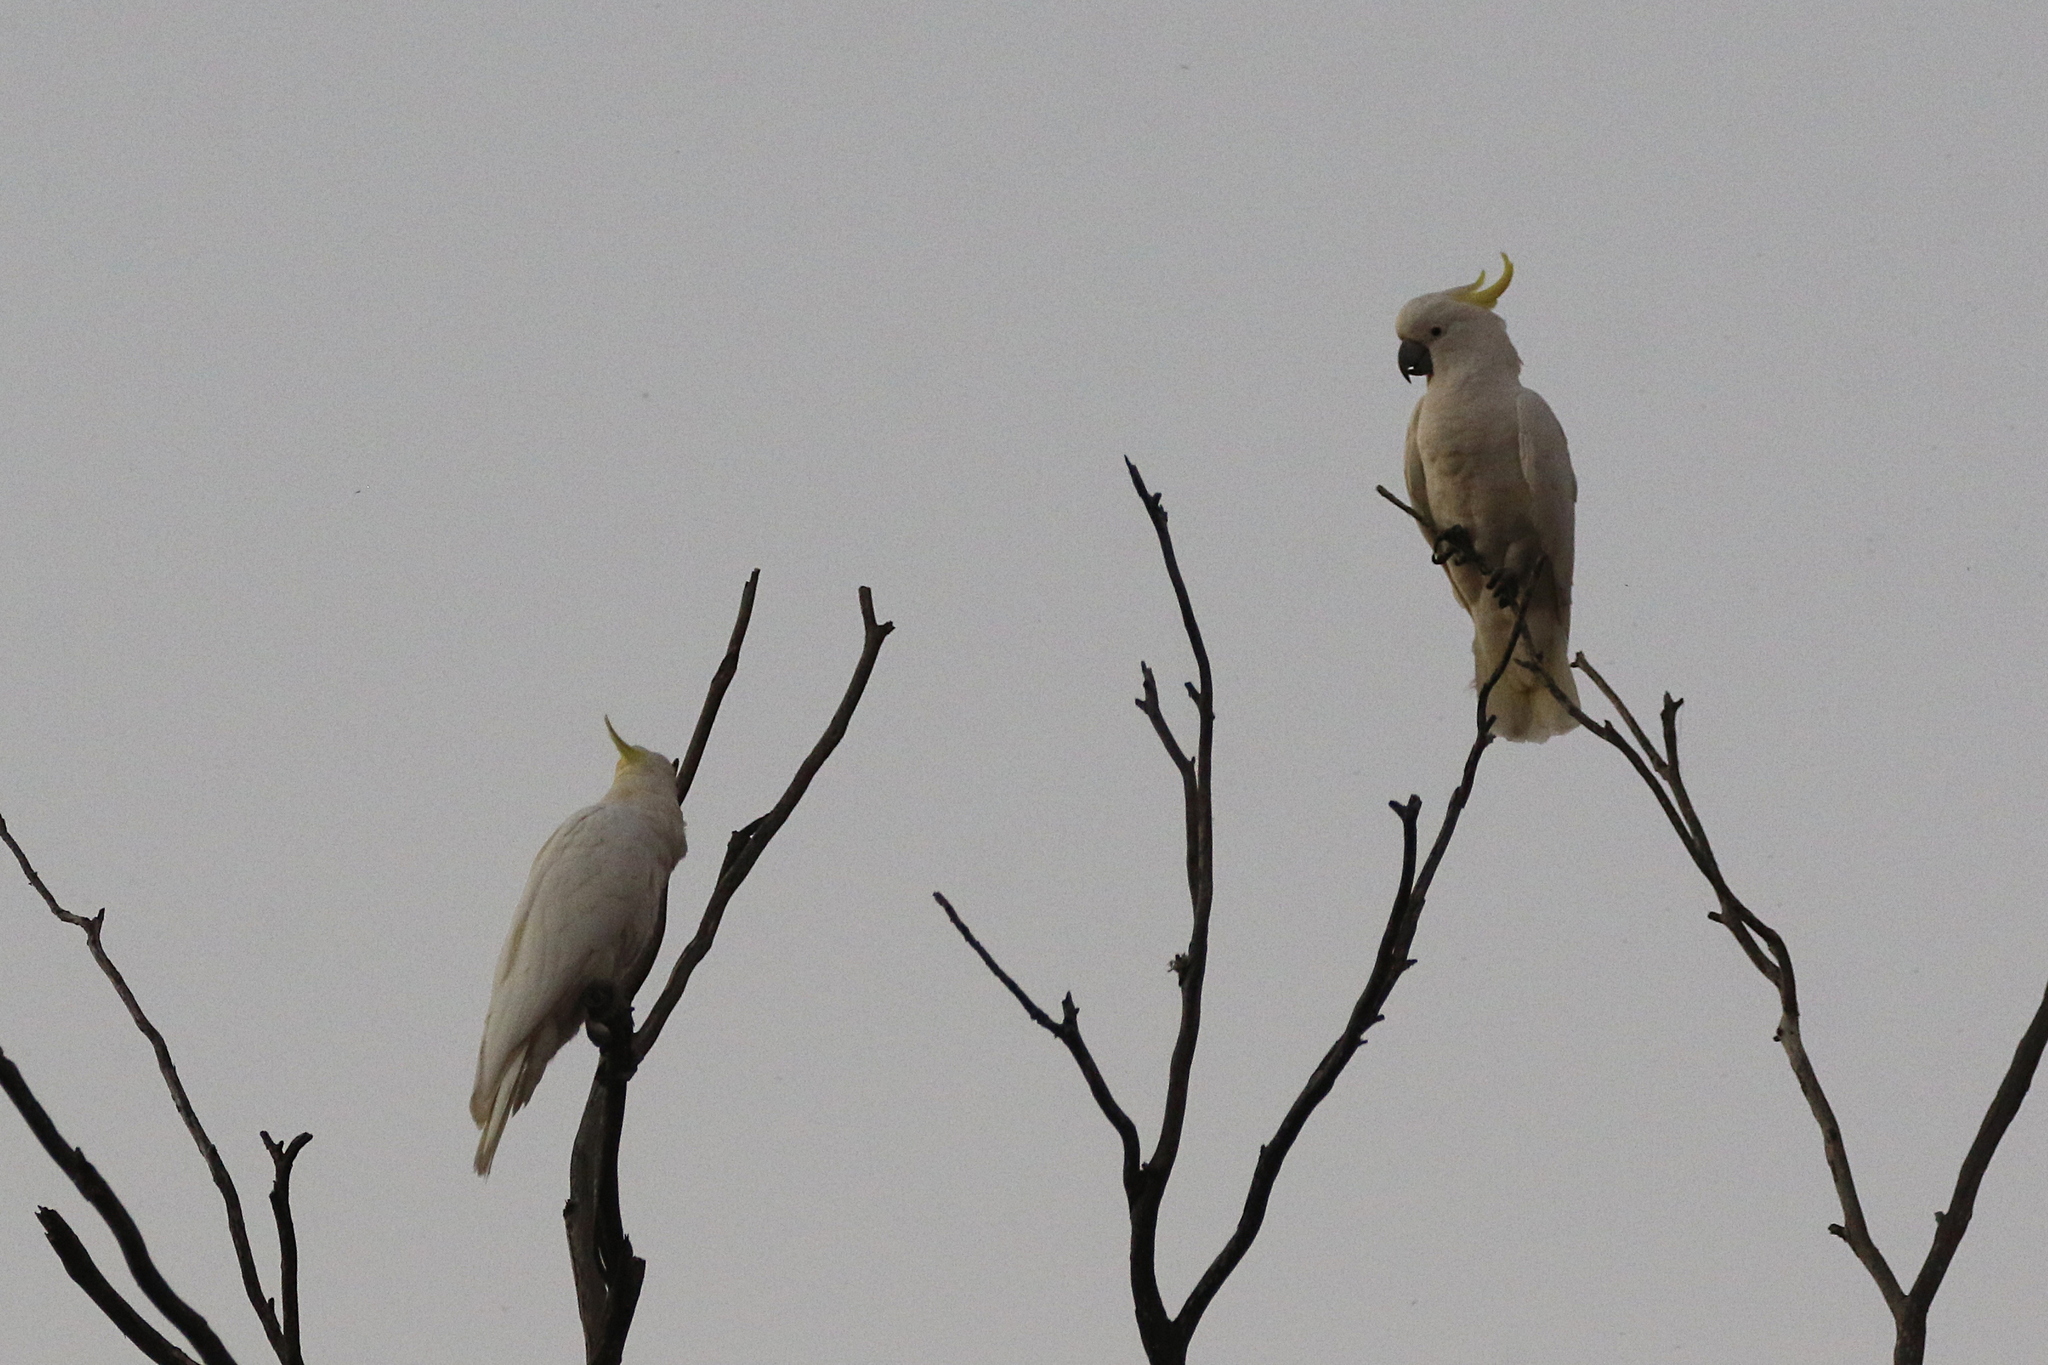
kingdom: Animalia
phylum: Chordata
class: Aves
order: Psittaciformes
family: Psittacidae
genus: Cacatua
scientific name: Cacatua galerita
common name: Sulphur-crested cockatoo
